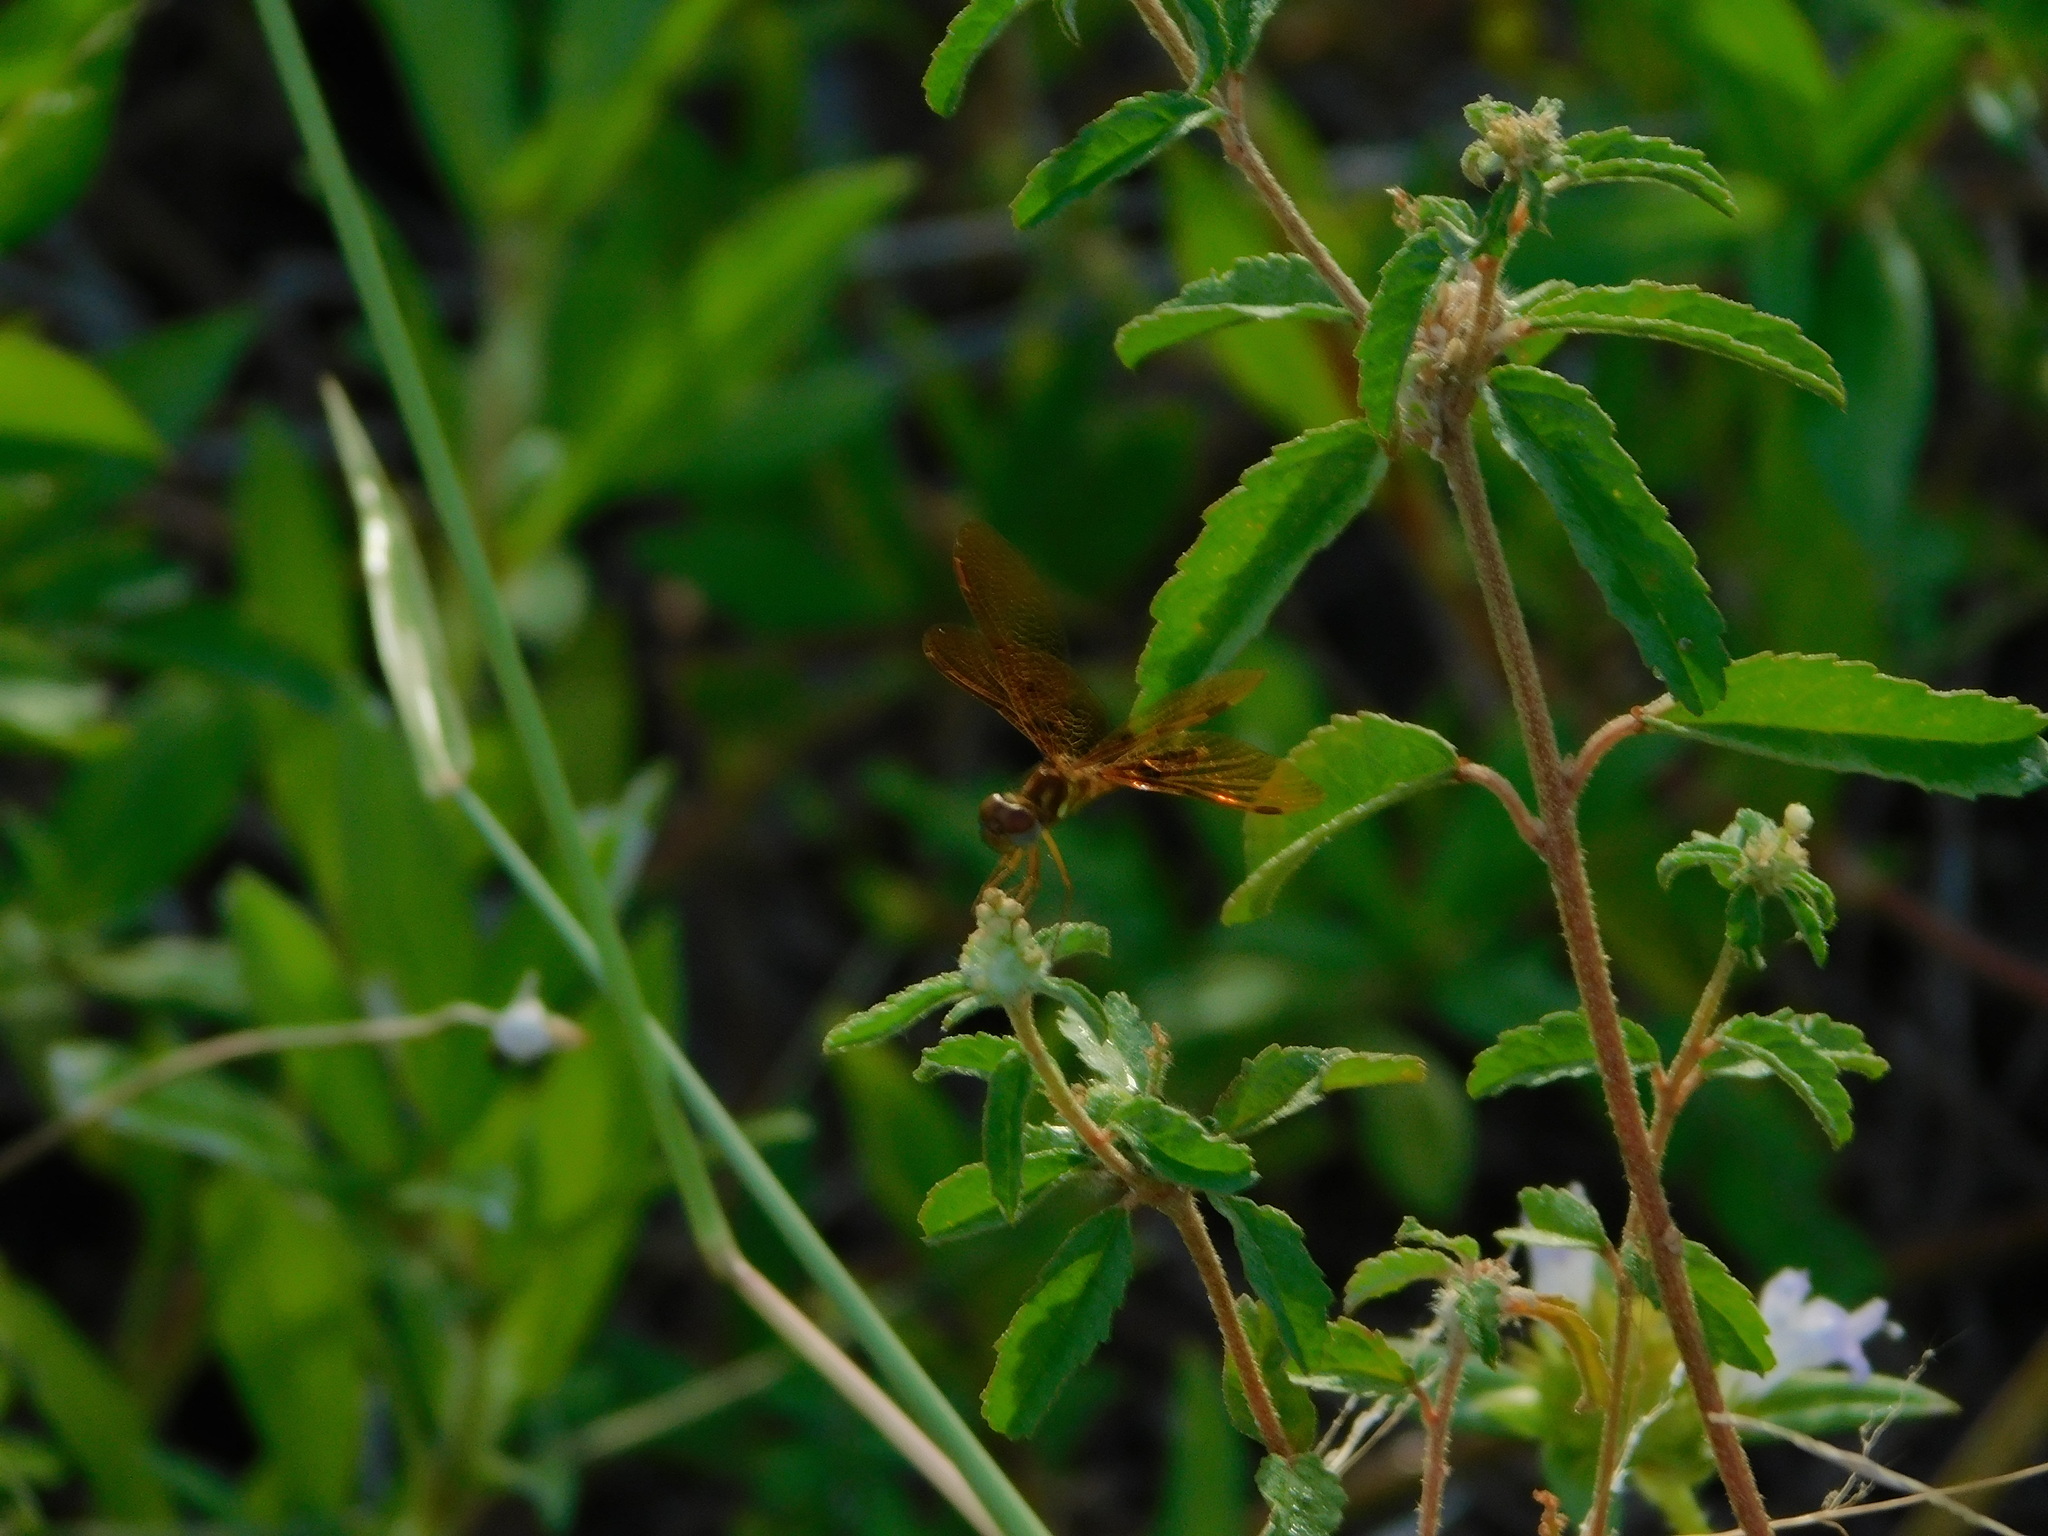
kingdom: Animalia
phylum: Arthropoda
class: Insecta
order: Odonata
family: Libellulidae
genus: Perithemis
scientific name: Perithemis tenera
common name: Eastern amberwing
